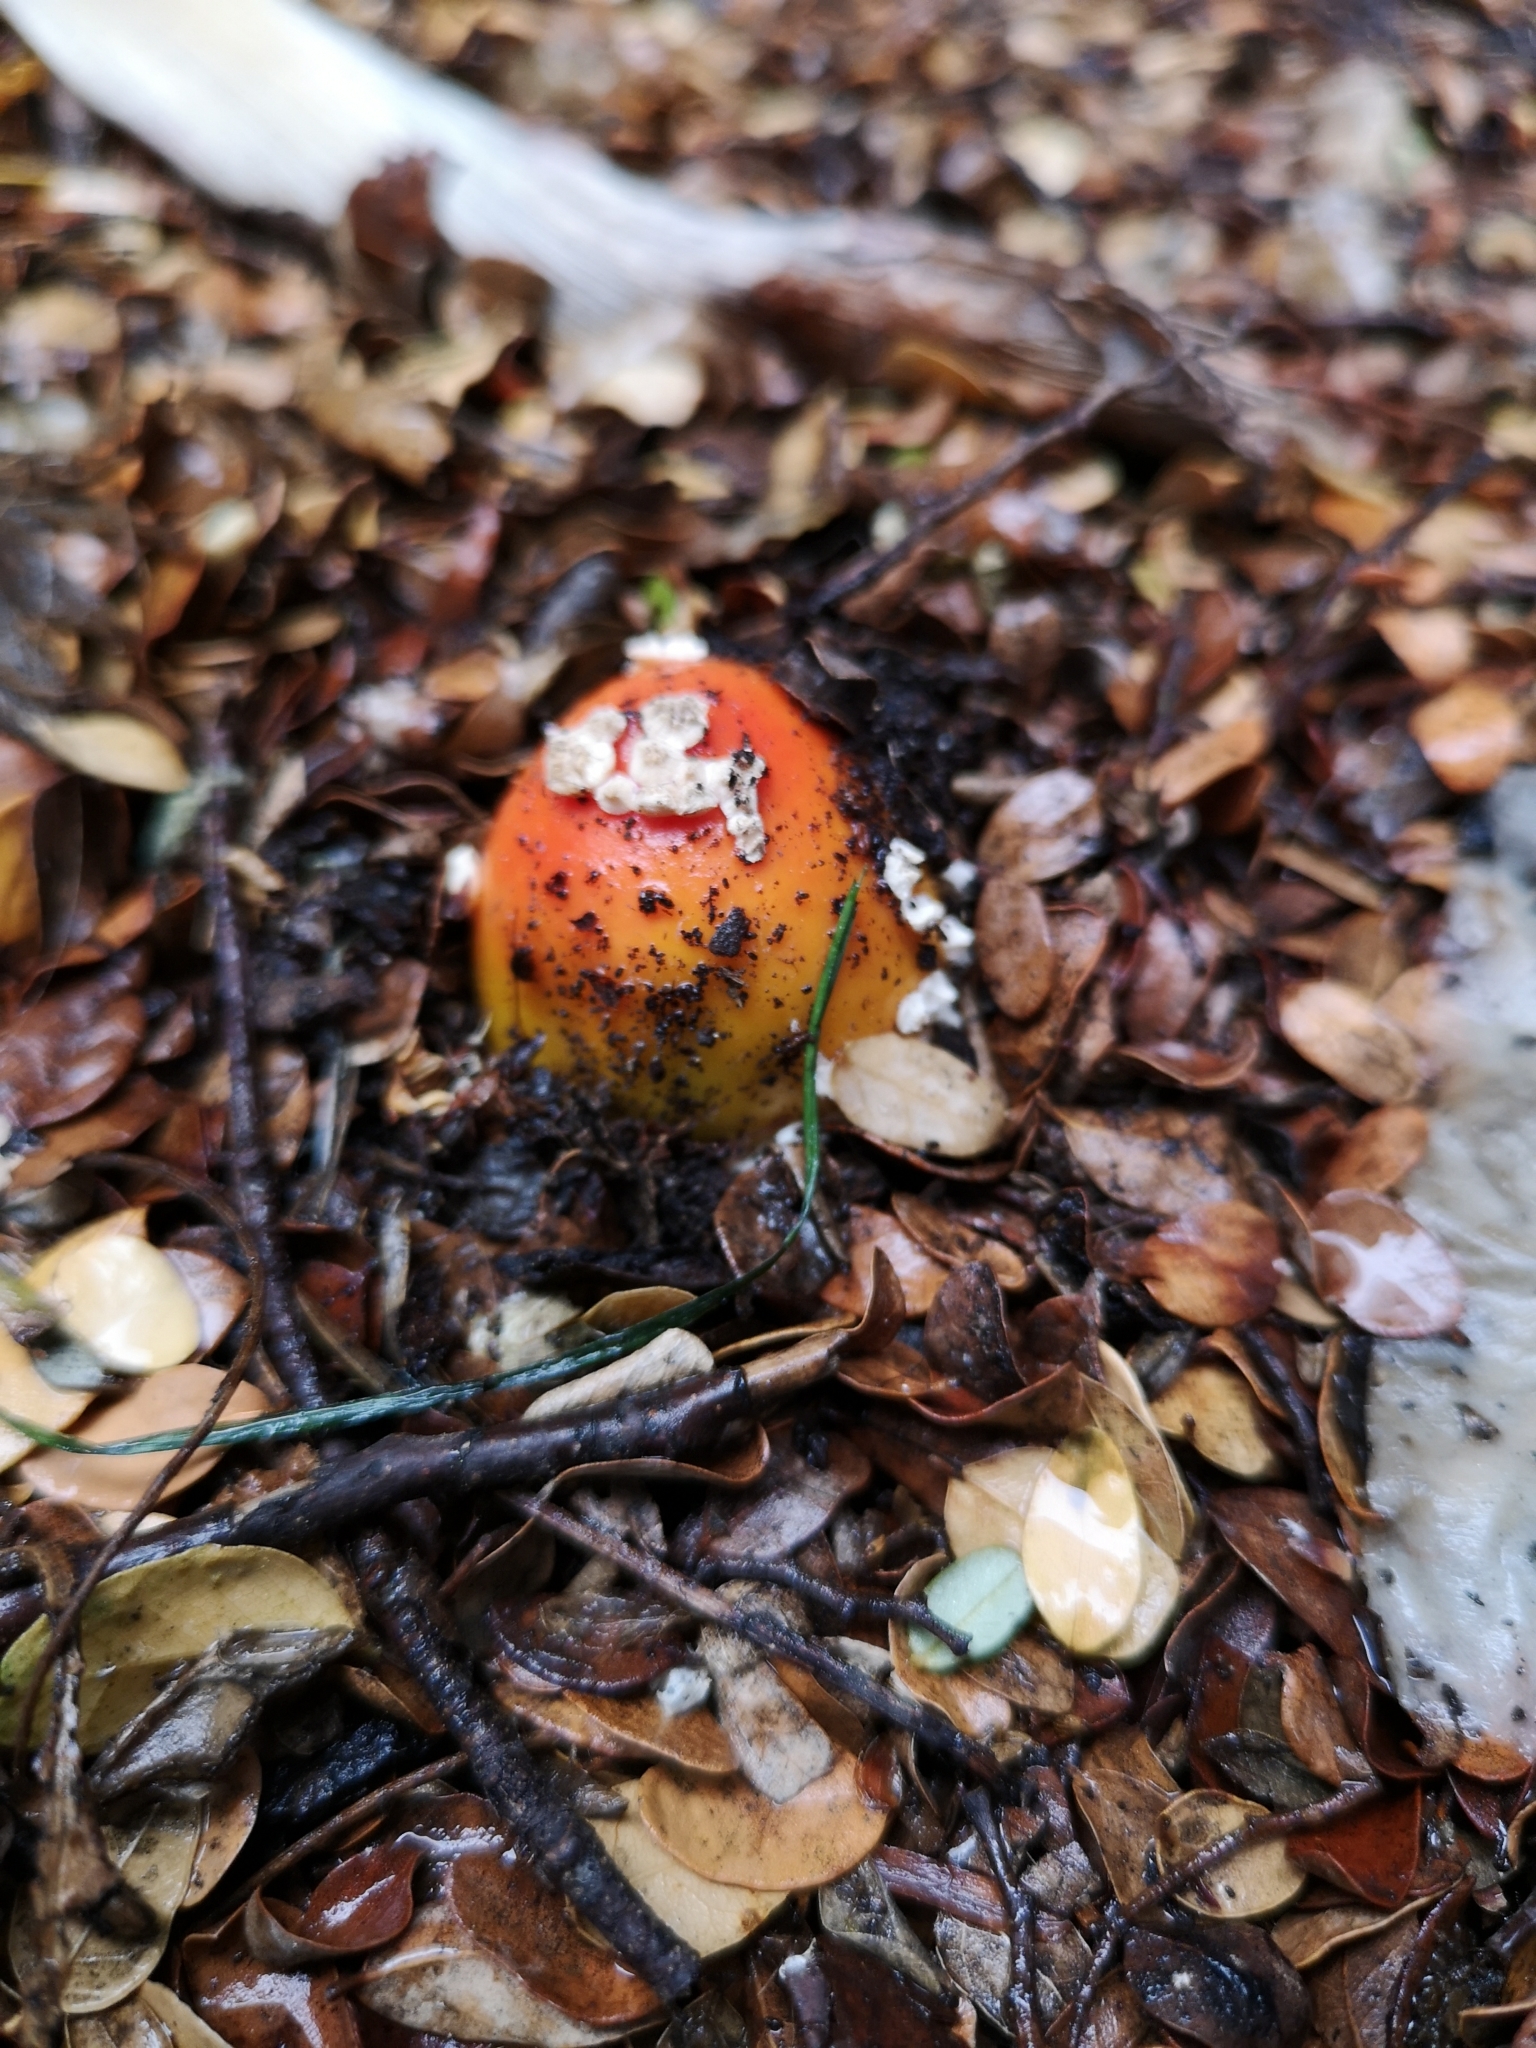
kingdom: Fungi
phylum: Basidiomycota
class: Agaricomycetes
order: Agaricales
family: Amanitaceae
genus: Amanita
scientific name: Amanita muscaria
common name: Fly agaric
